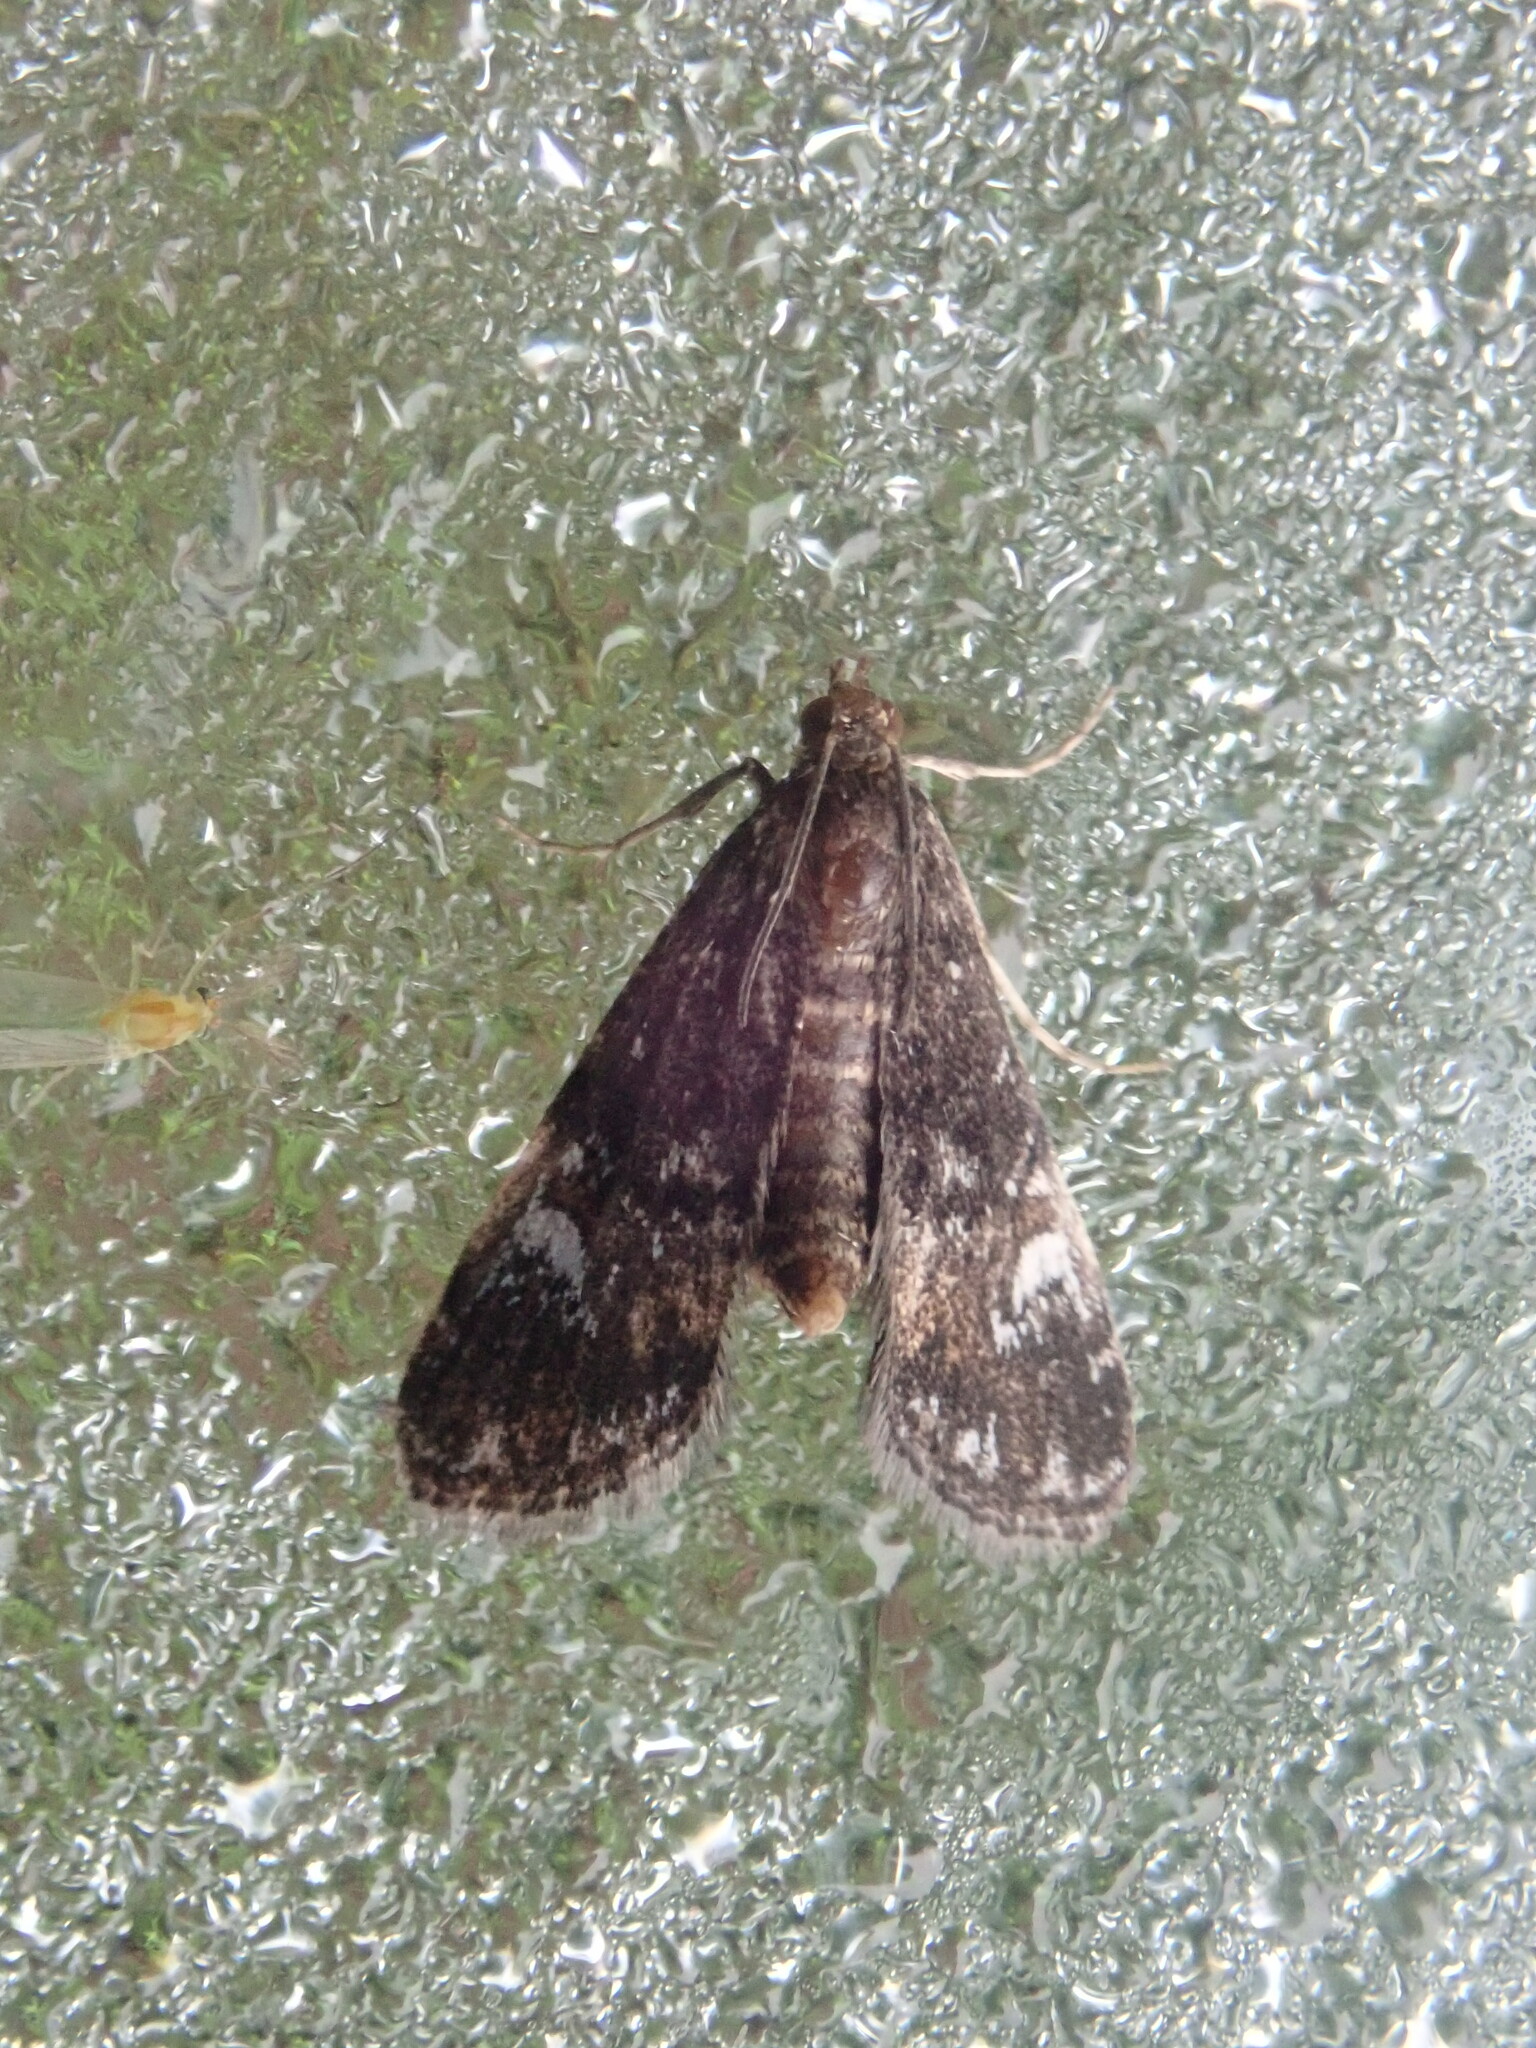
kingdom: Animalia
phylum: Arthropoda
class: Insecta
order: Lepidoptera
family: Crambidae
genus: Elophila
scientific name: Elophila obliteralis
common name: Waterlily leafcutter moth
